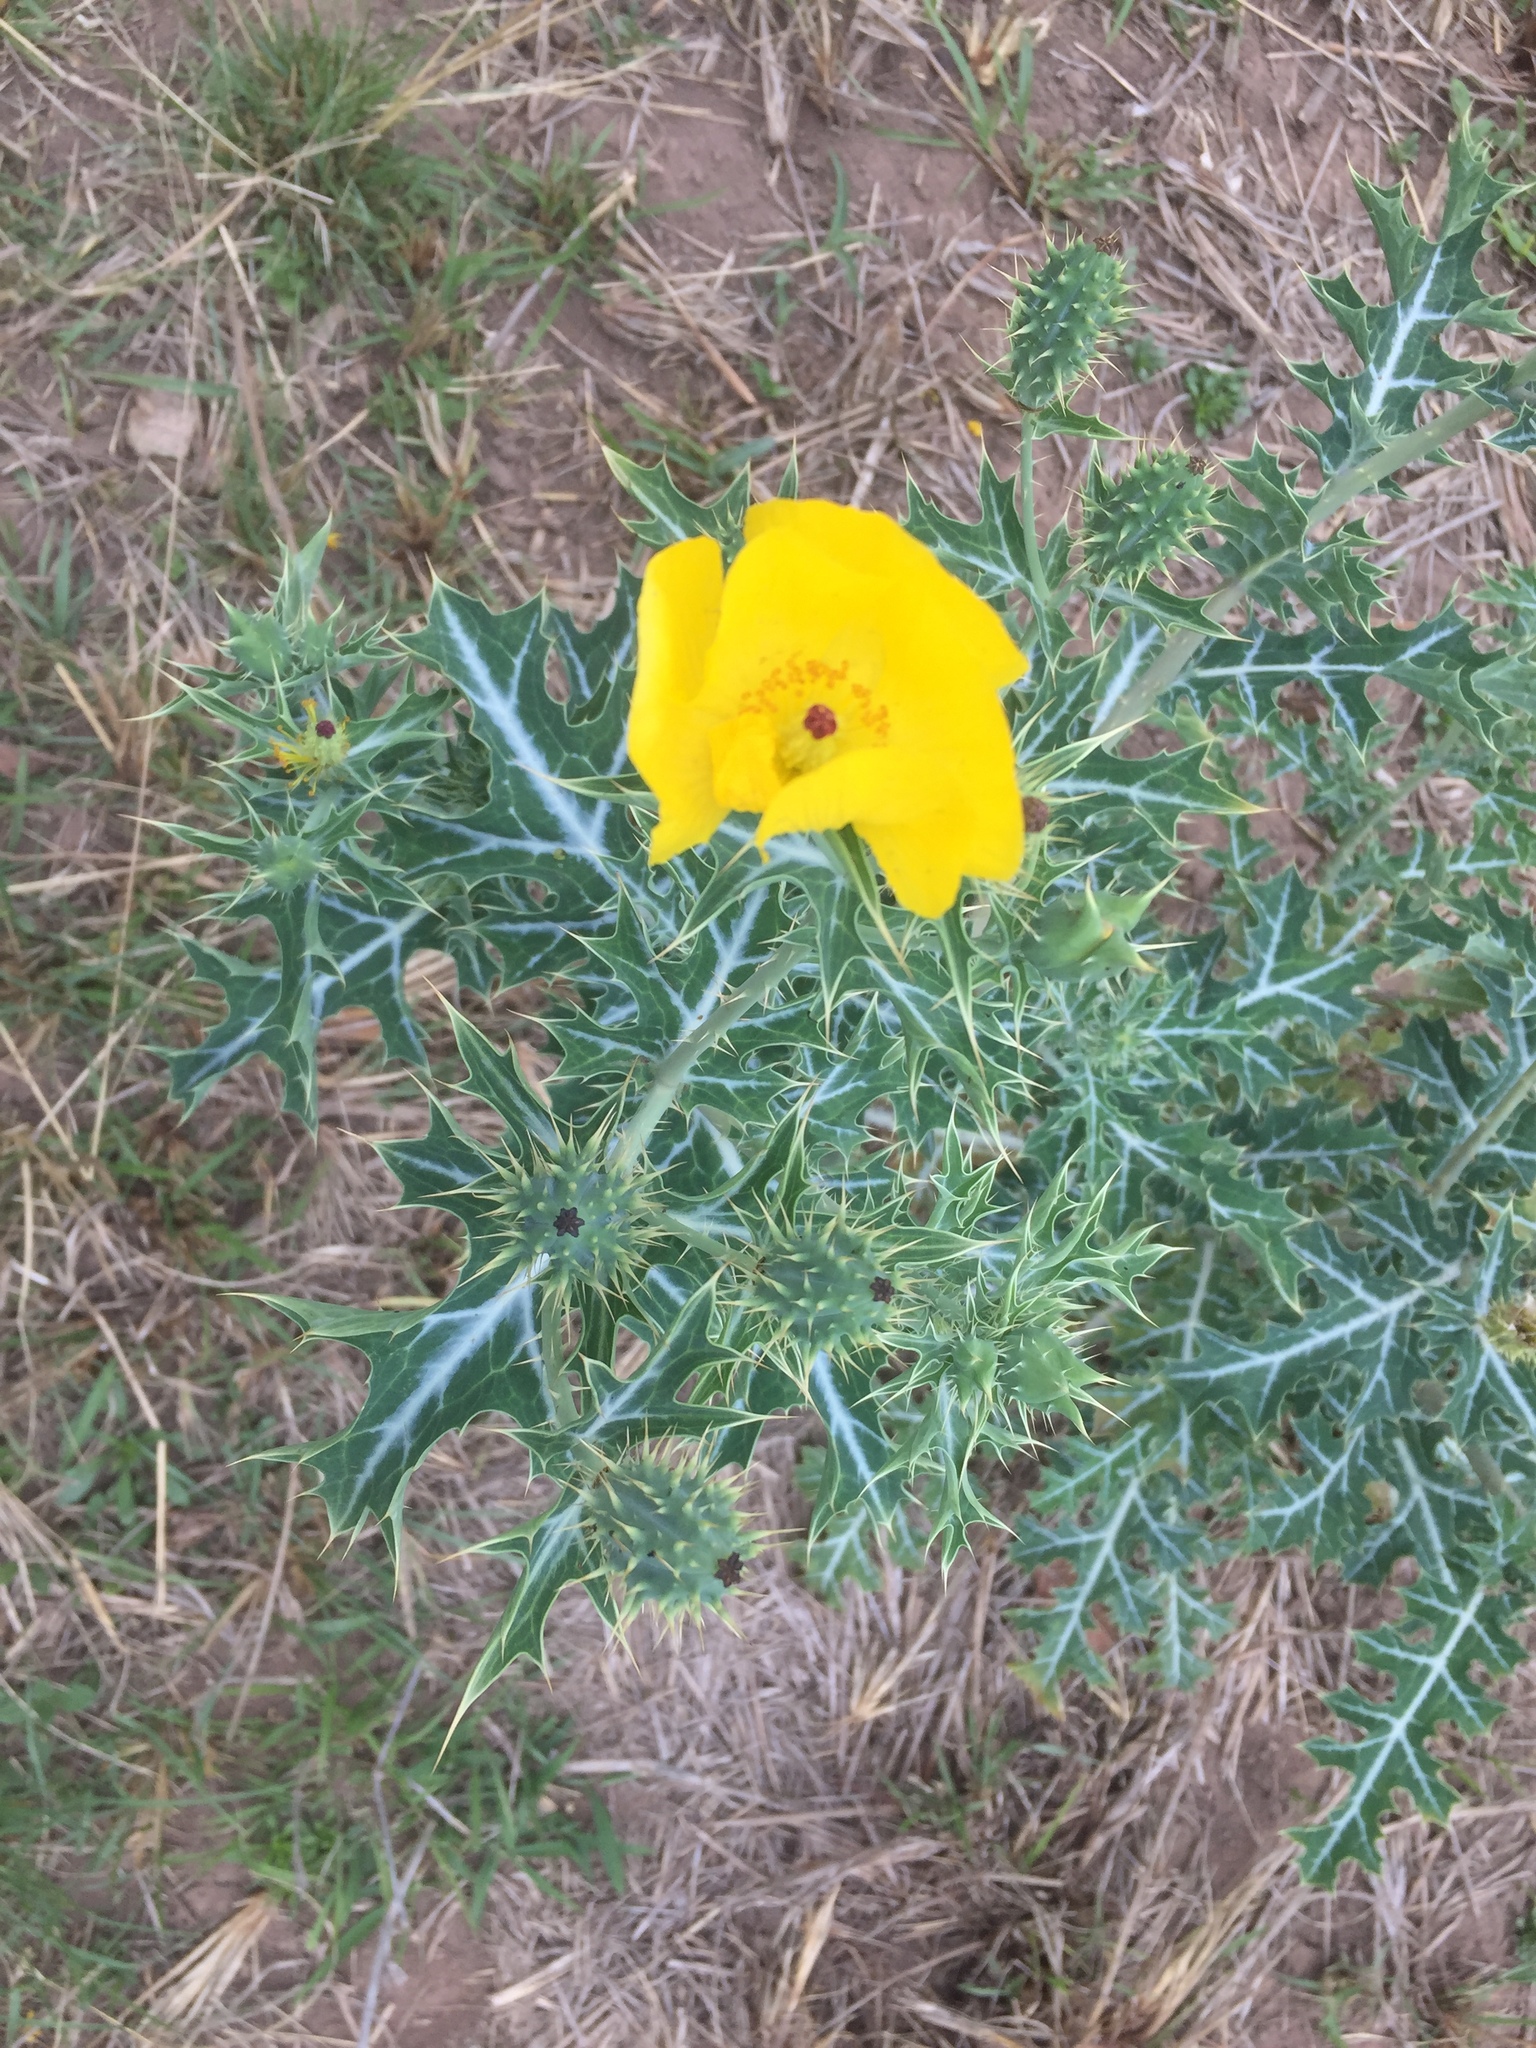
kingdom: Plantae
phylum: Tracheophyta
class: Magnoliopsida
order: Ranunculales
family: Papaveraceae
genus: Argemone
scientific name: Argemone mexicana
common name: Mexican poppy
